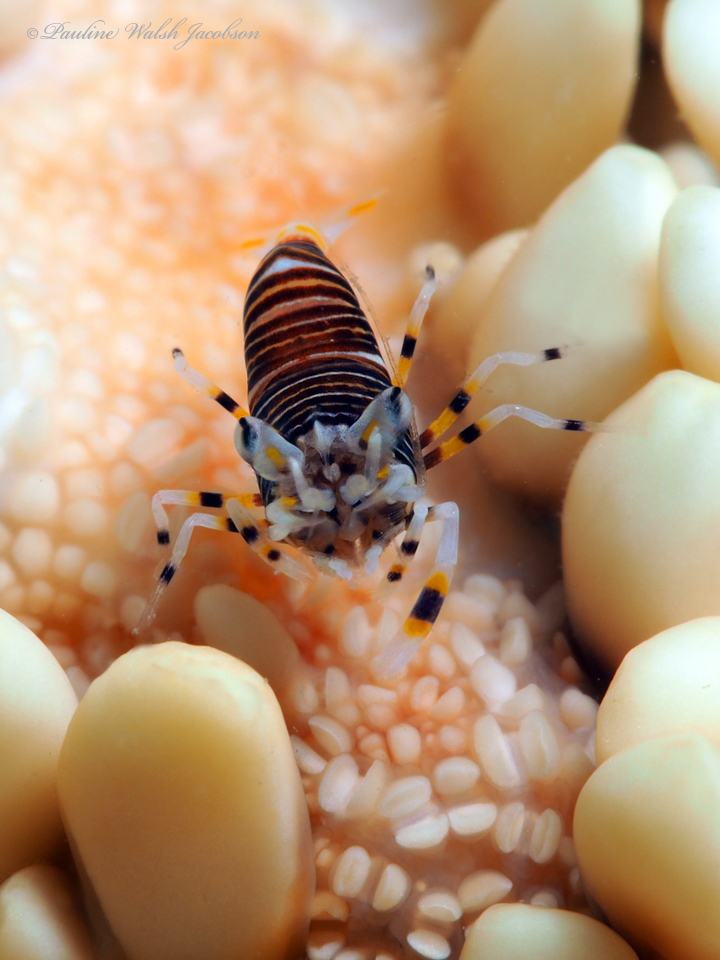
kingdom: Animalia
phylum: Arthropoda
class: Malacostraca
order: Decapoda
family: Palaemonidae
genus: Gnathophyllum
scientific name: Gnathophyllum americanum
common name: Bumblebee shrimp
